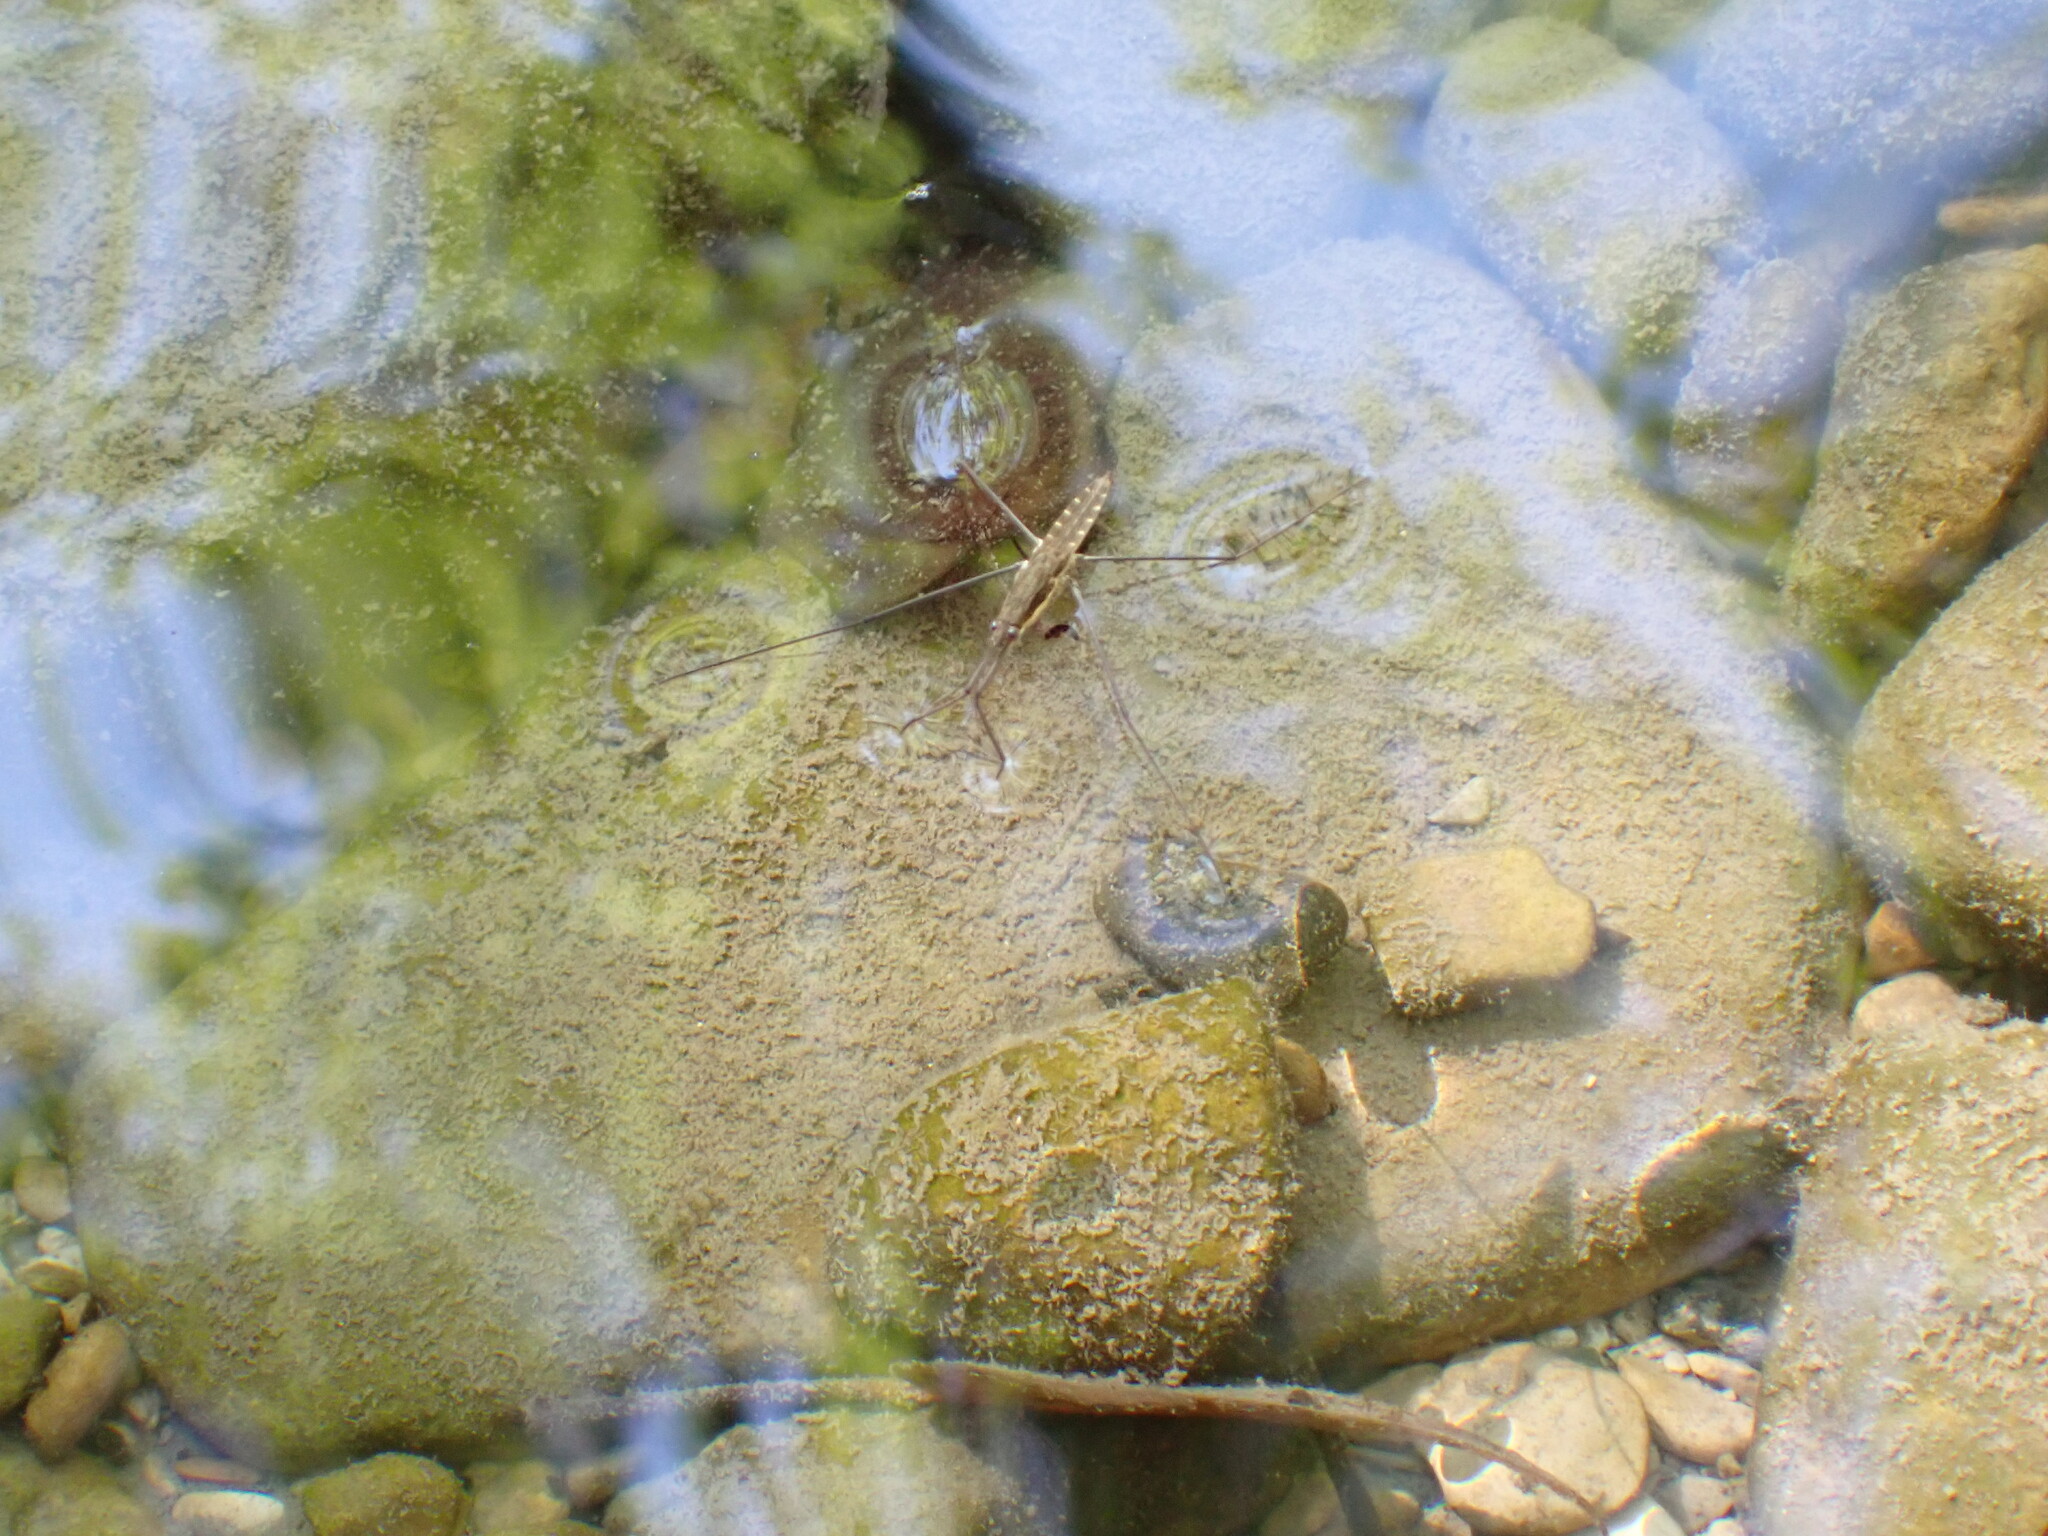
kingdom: Animalia
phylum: Arthropoda
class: Insecta
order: Hemiptera
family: Gerridae
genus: Aquarius
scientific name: Aquarius najas
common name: River skater
